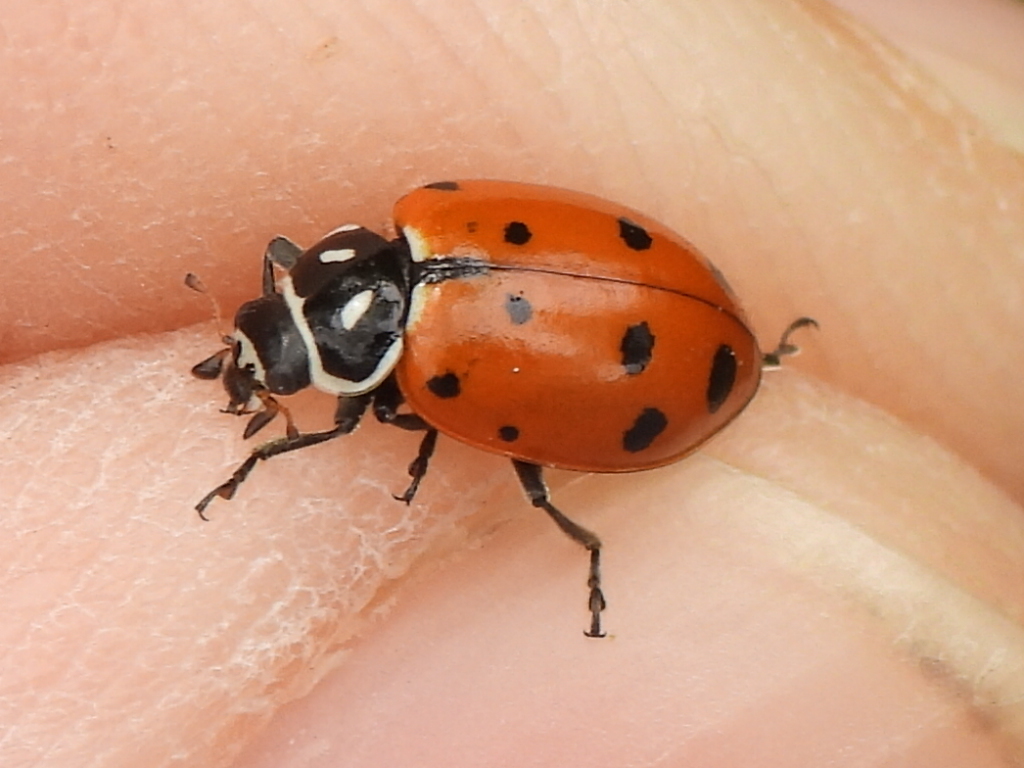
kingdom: Animalia
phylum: Arthropoda
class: Insecta
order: Coleoptera
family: Coccinellidae
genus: Hippodamia
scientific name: Hippodamia convergens
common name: Convergent lady beetle
